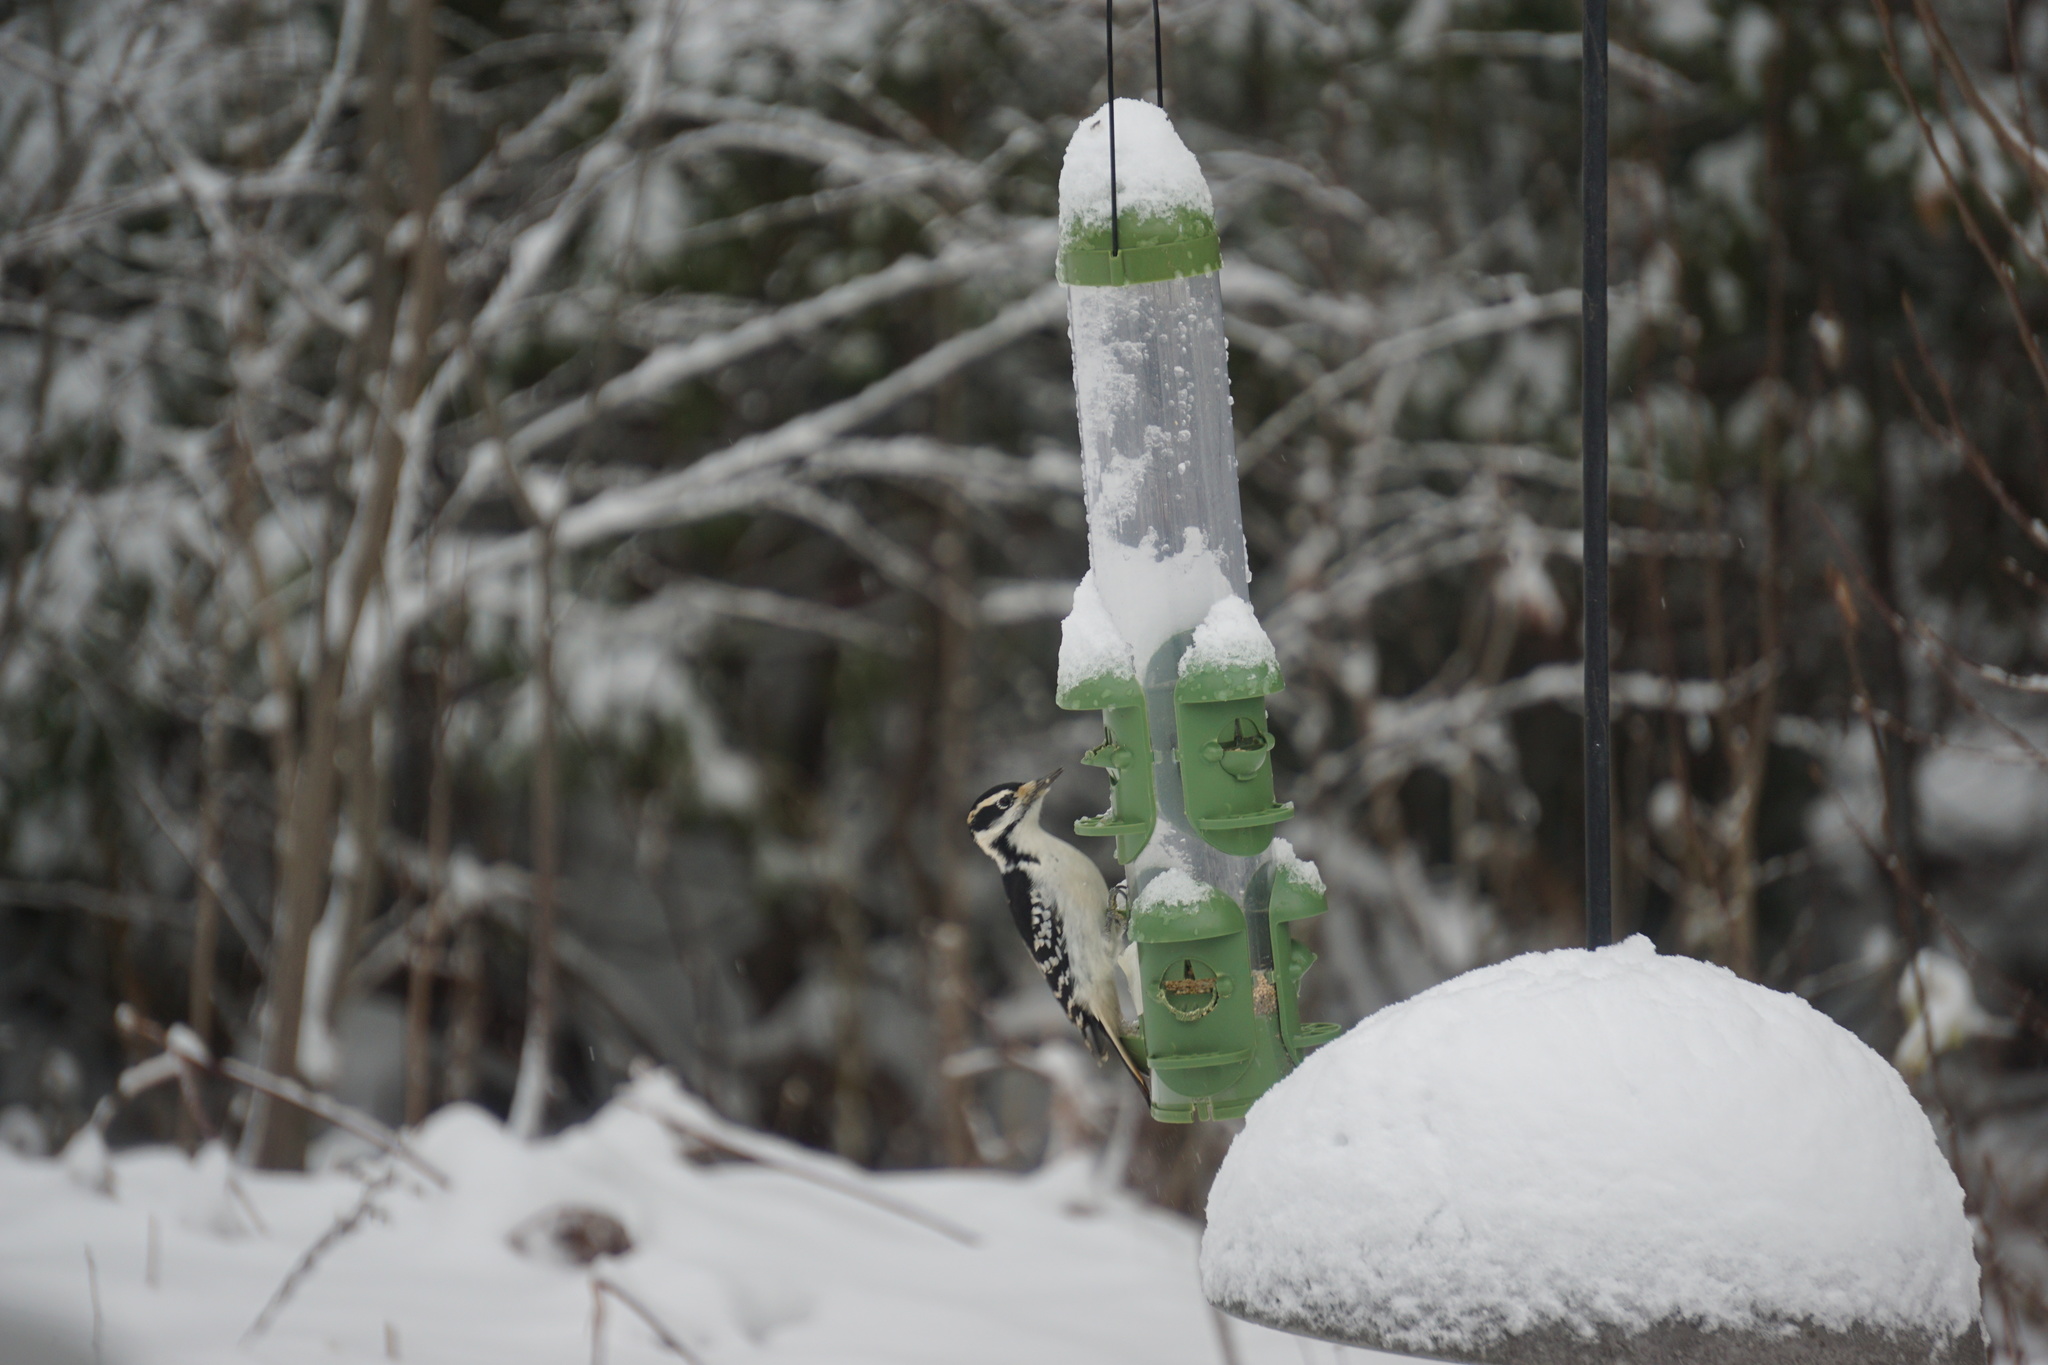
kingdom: Animalia
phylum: Chordata
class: Aves
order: Piciformes
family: Picidae
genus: Leuconotopicus
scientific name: Leuconotopicus villosus
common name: Hairy woodpecker
